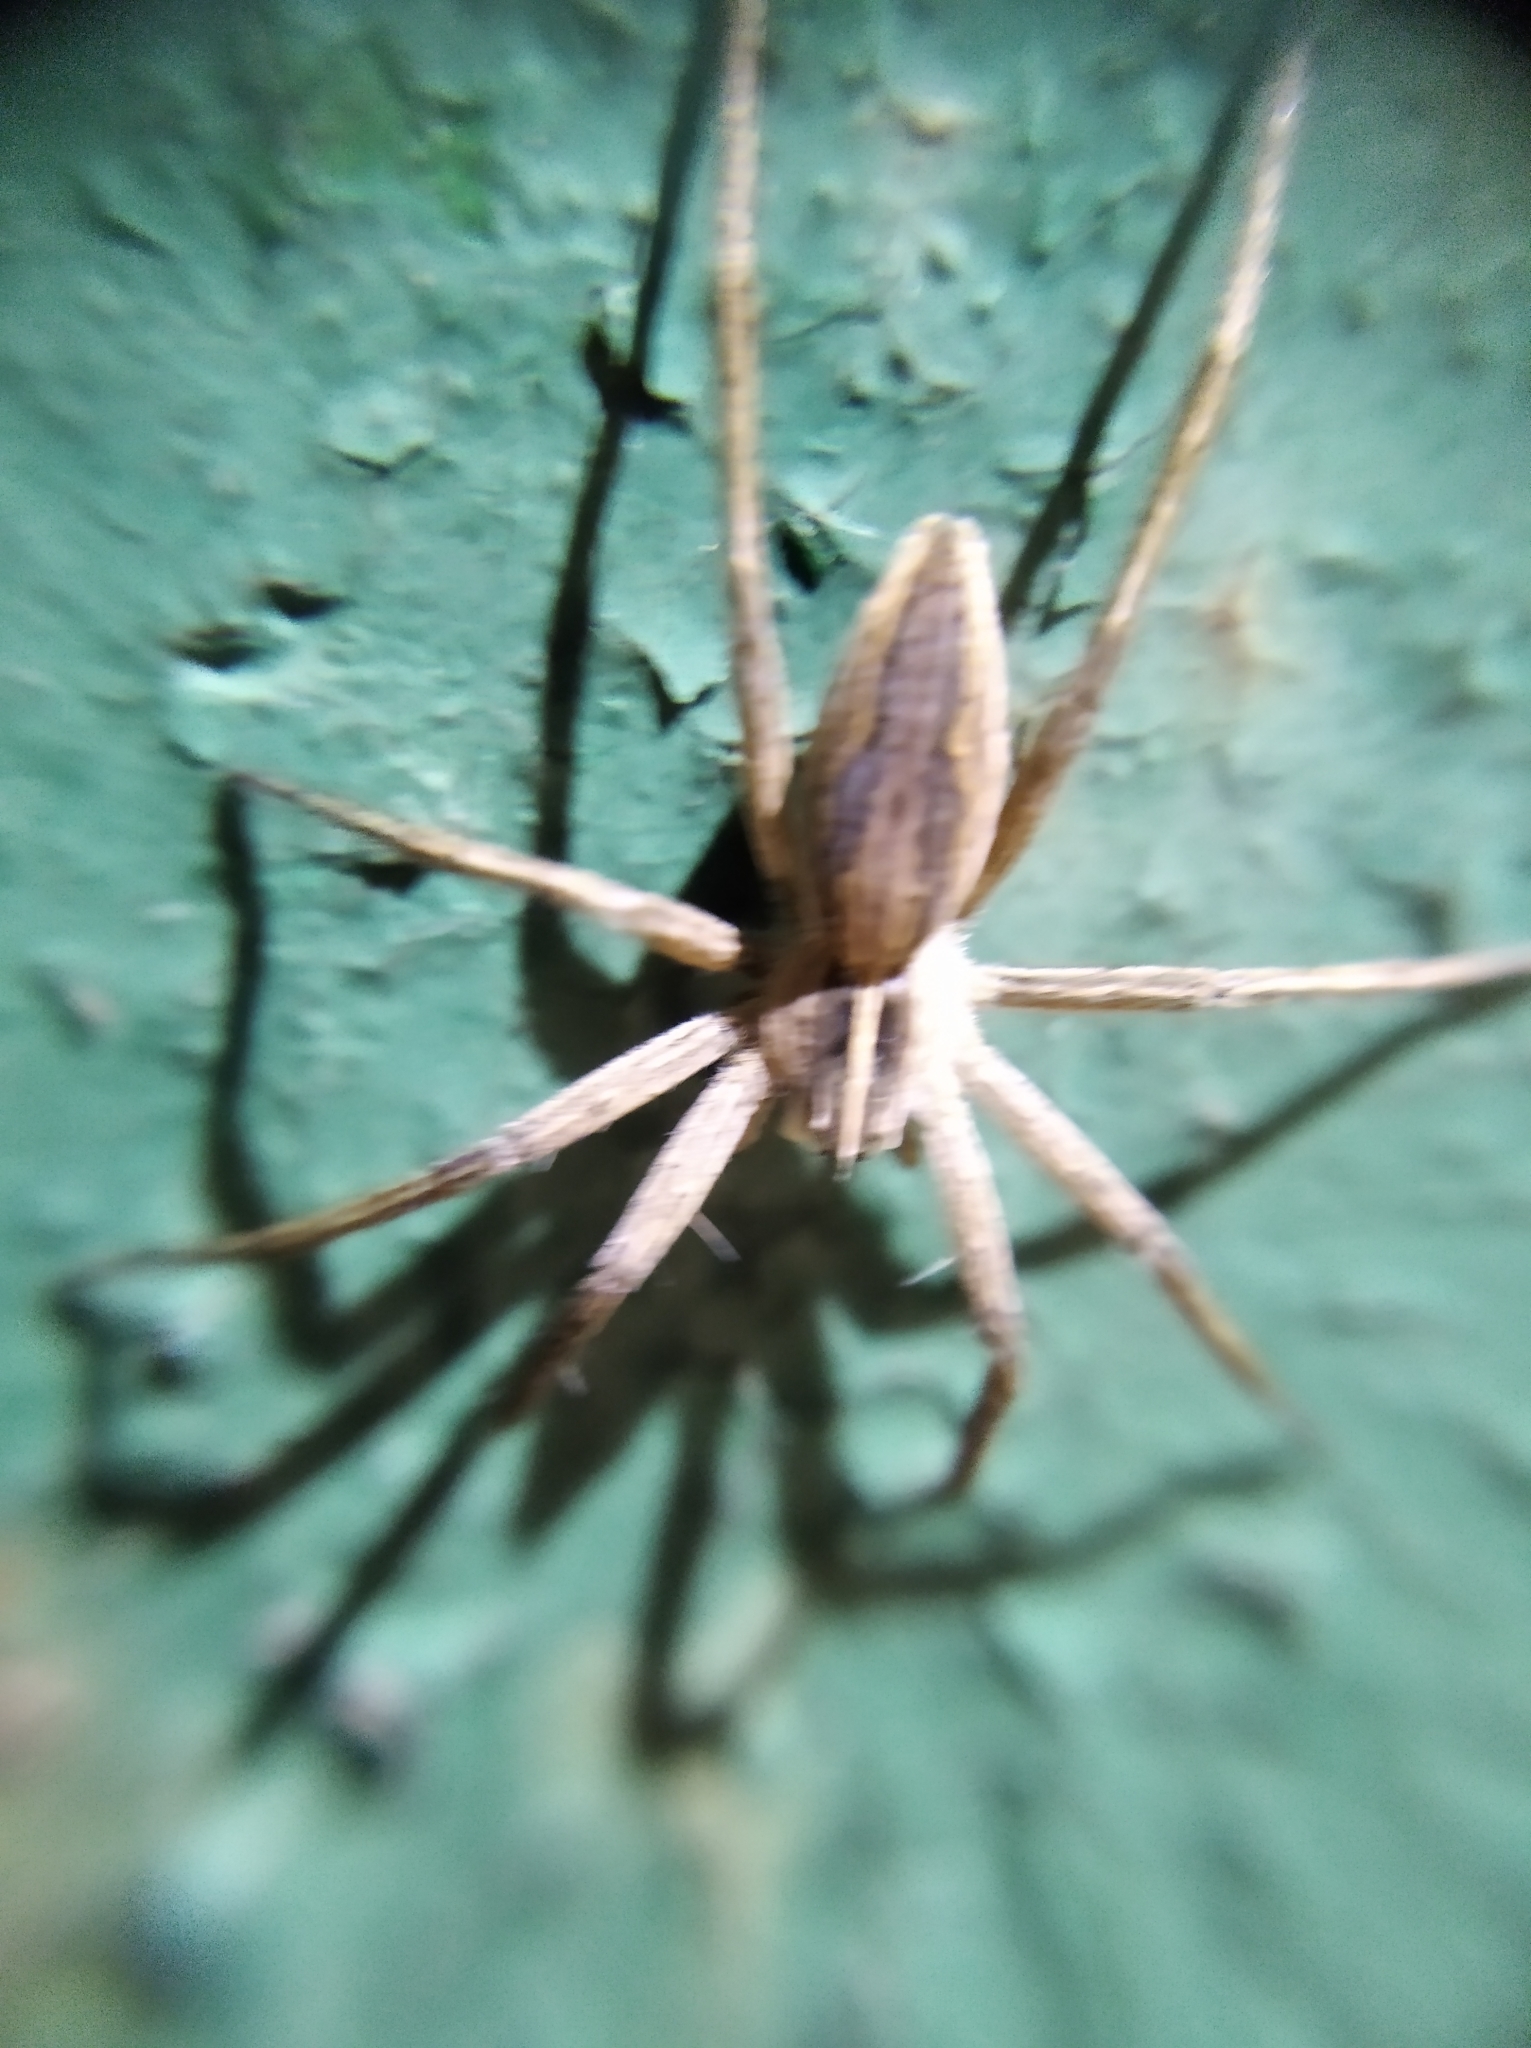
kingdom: Animalia
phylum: Arthropoda
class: Arachnida
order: Araneae
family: Pisauridae
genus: Pisaura
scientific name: Pisaura mirabilis
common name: Tent spider
